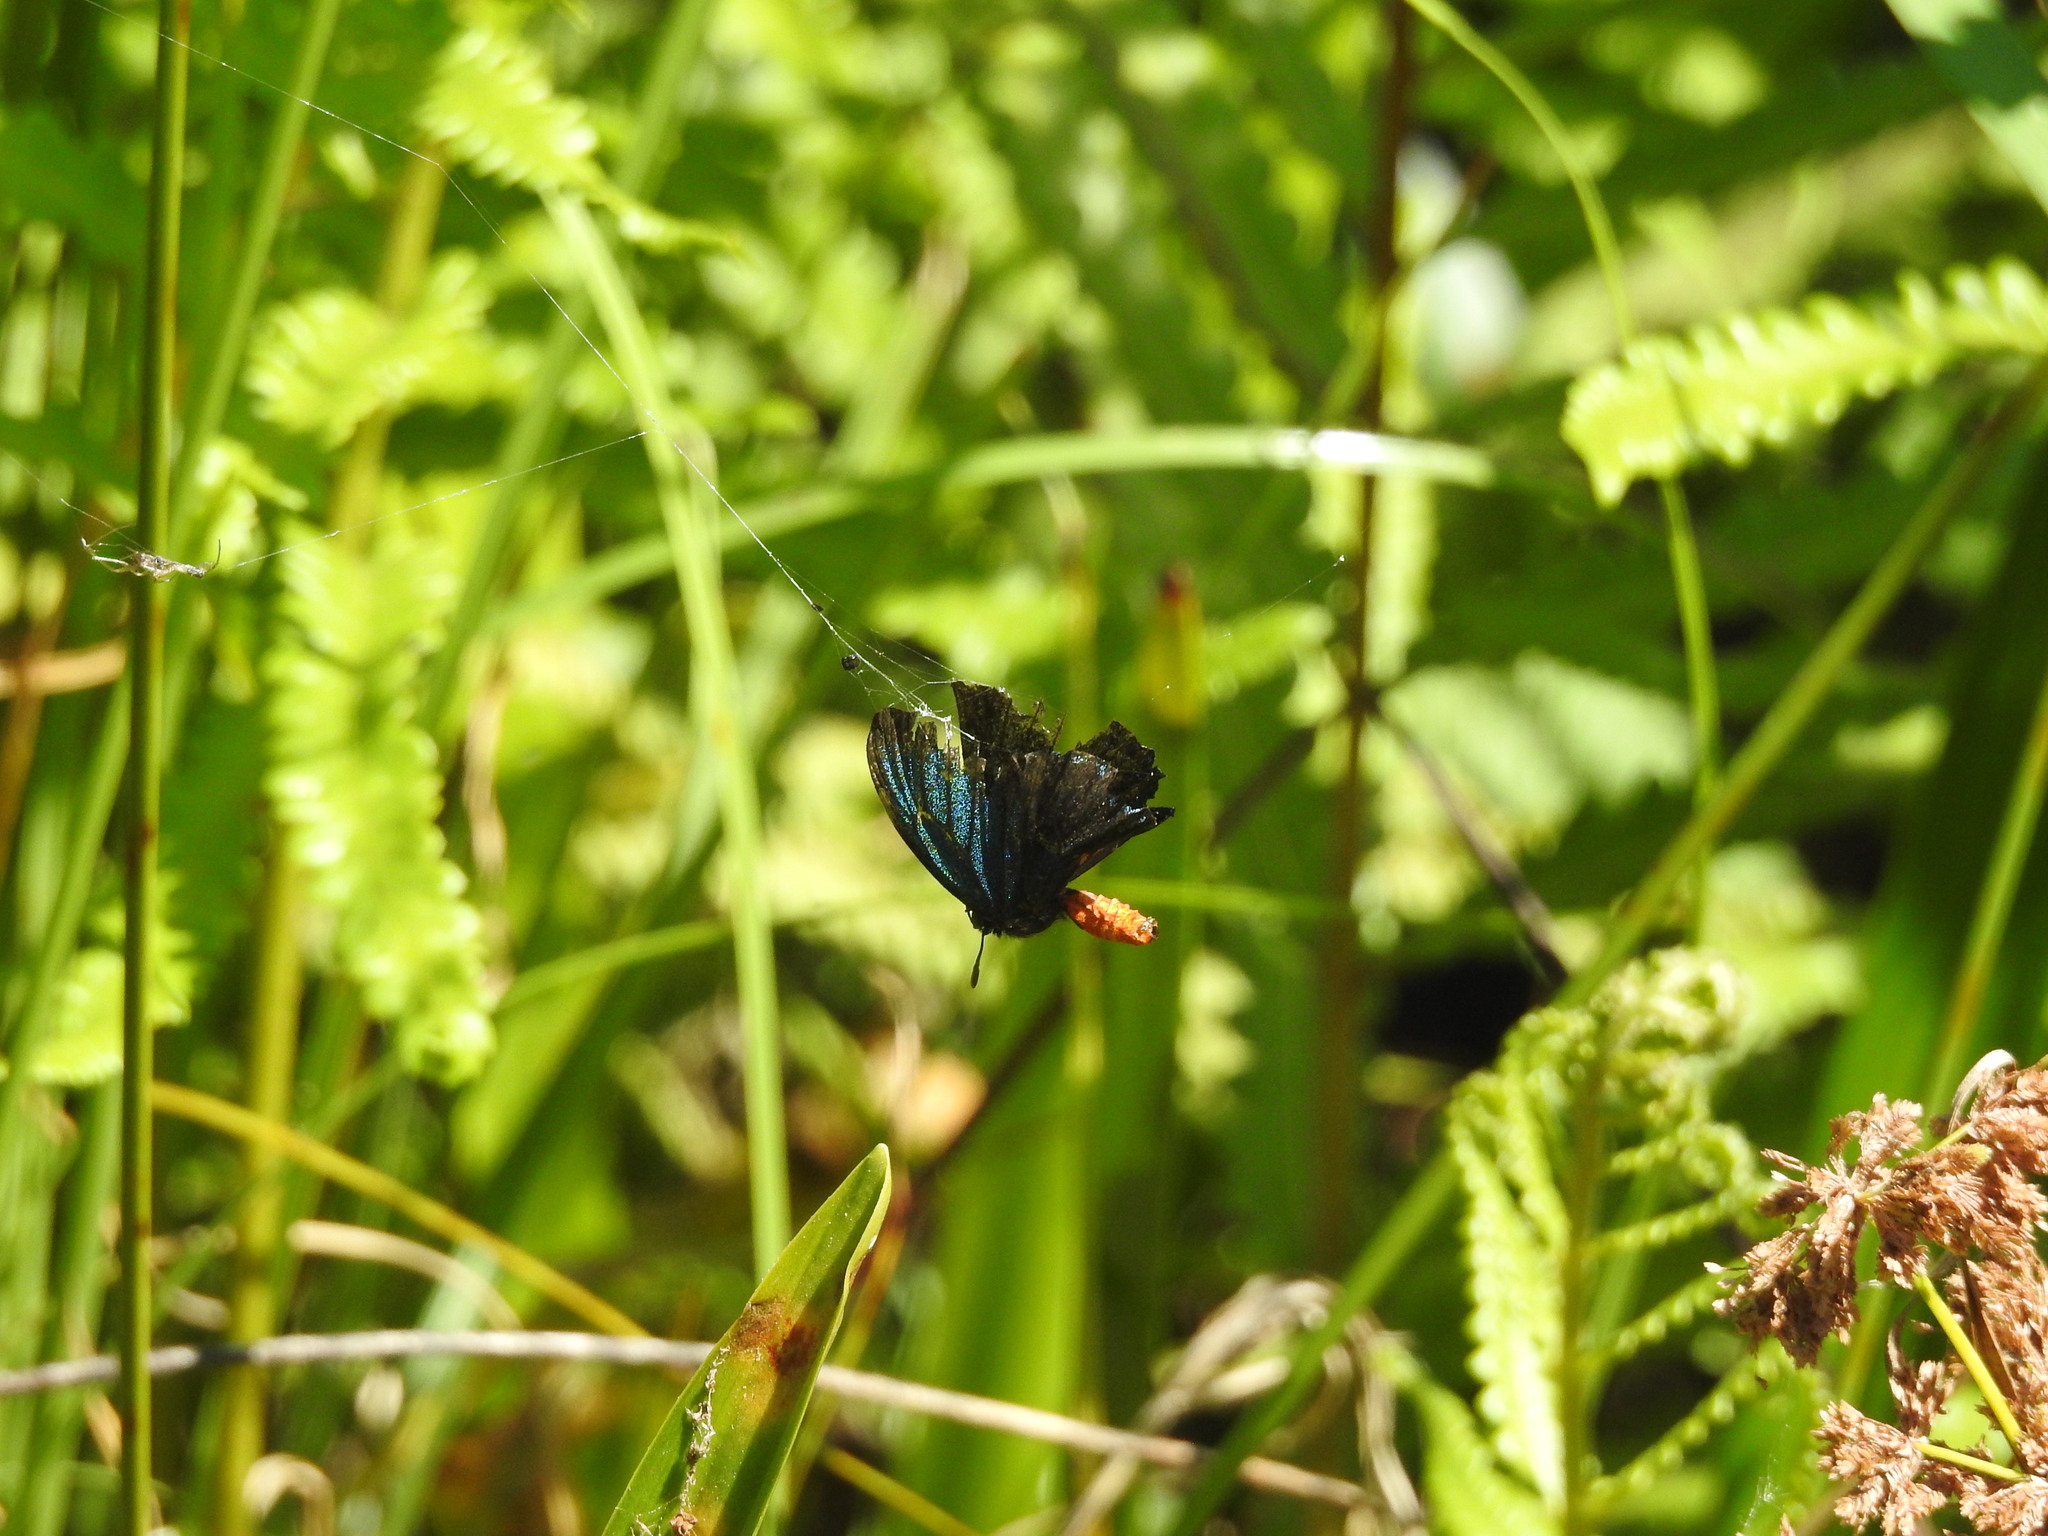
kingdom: Animalia
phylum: Arthropoda
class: Insecta
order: Lepidoptera
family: Lycaenidae
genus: Eumaeus
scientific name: Eumaeus atala
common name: Atala
